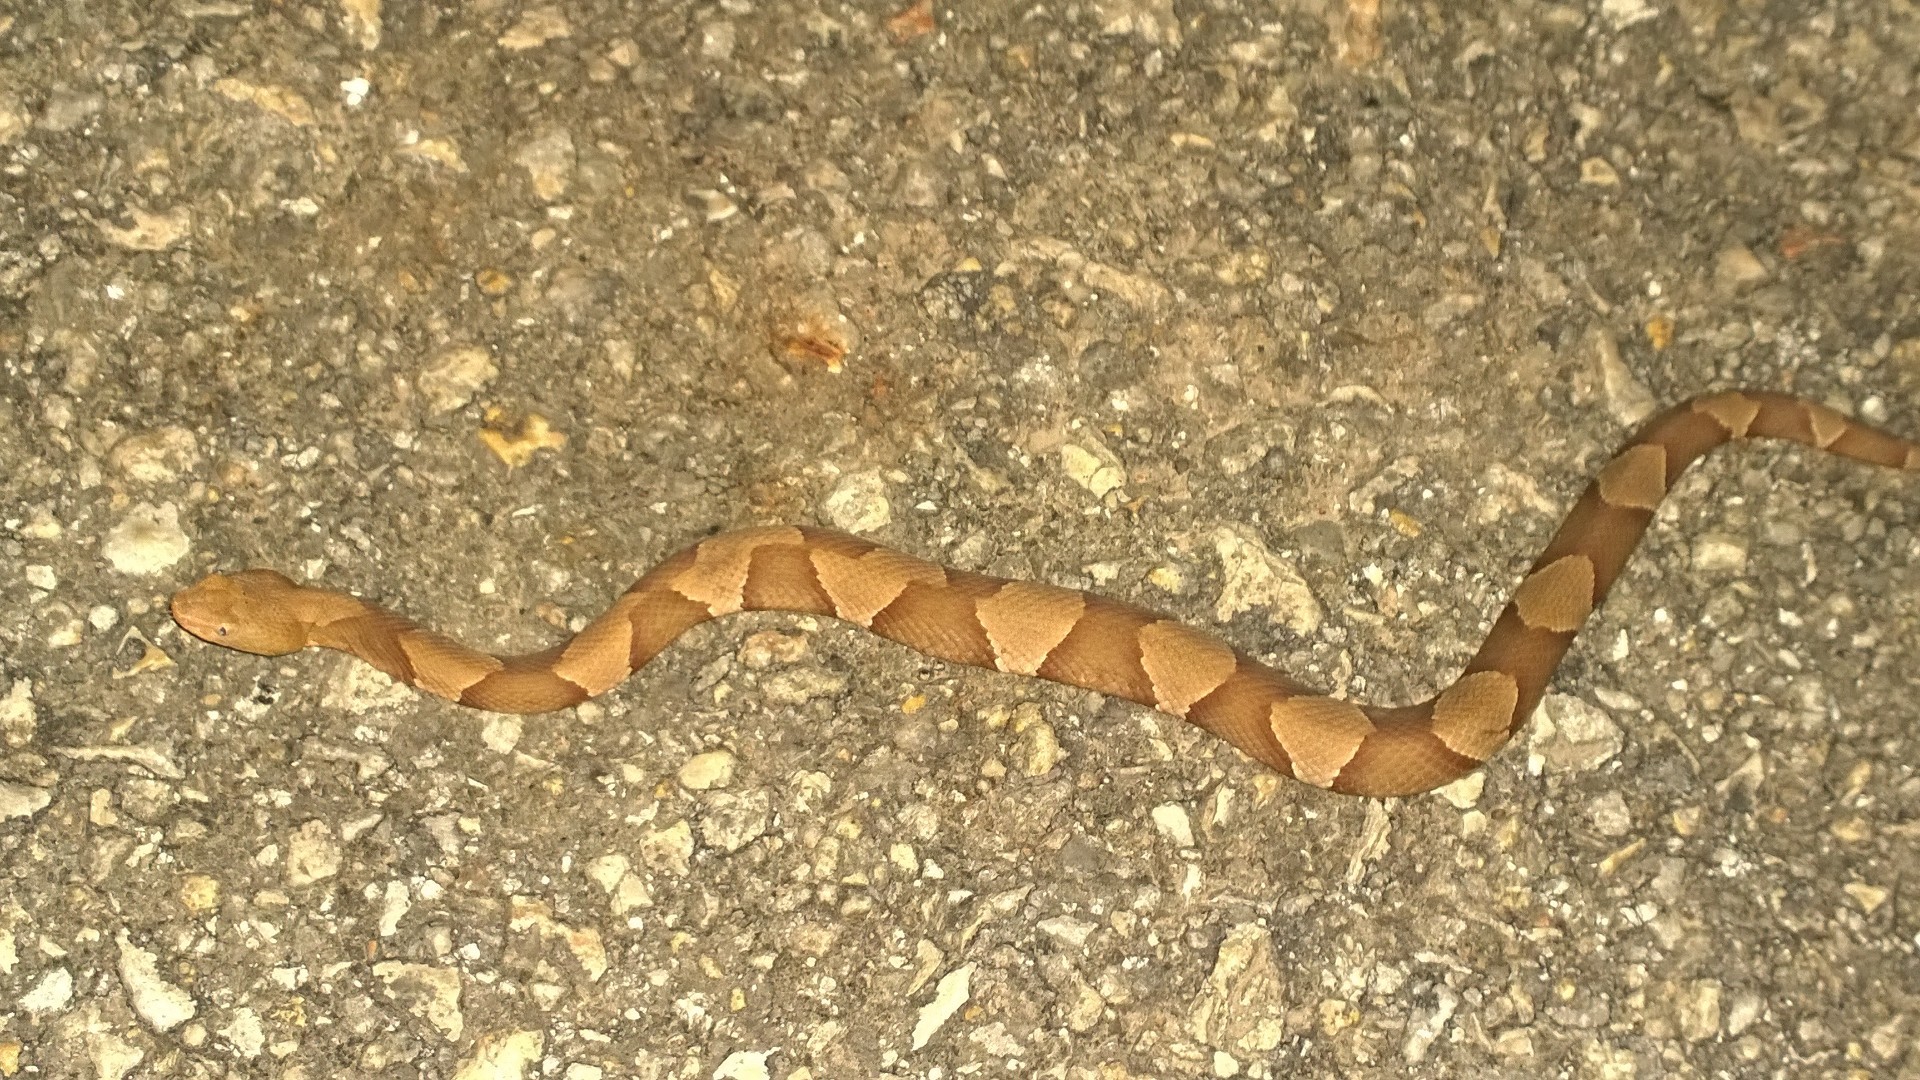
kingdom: Animalia
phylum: Chordata
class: Squamata
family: Viperidae
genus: Agkistrodon
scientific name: Agkistrodon laticinctus
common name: Broad-banded copperhead
